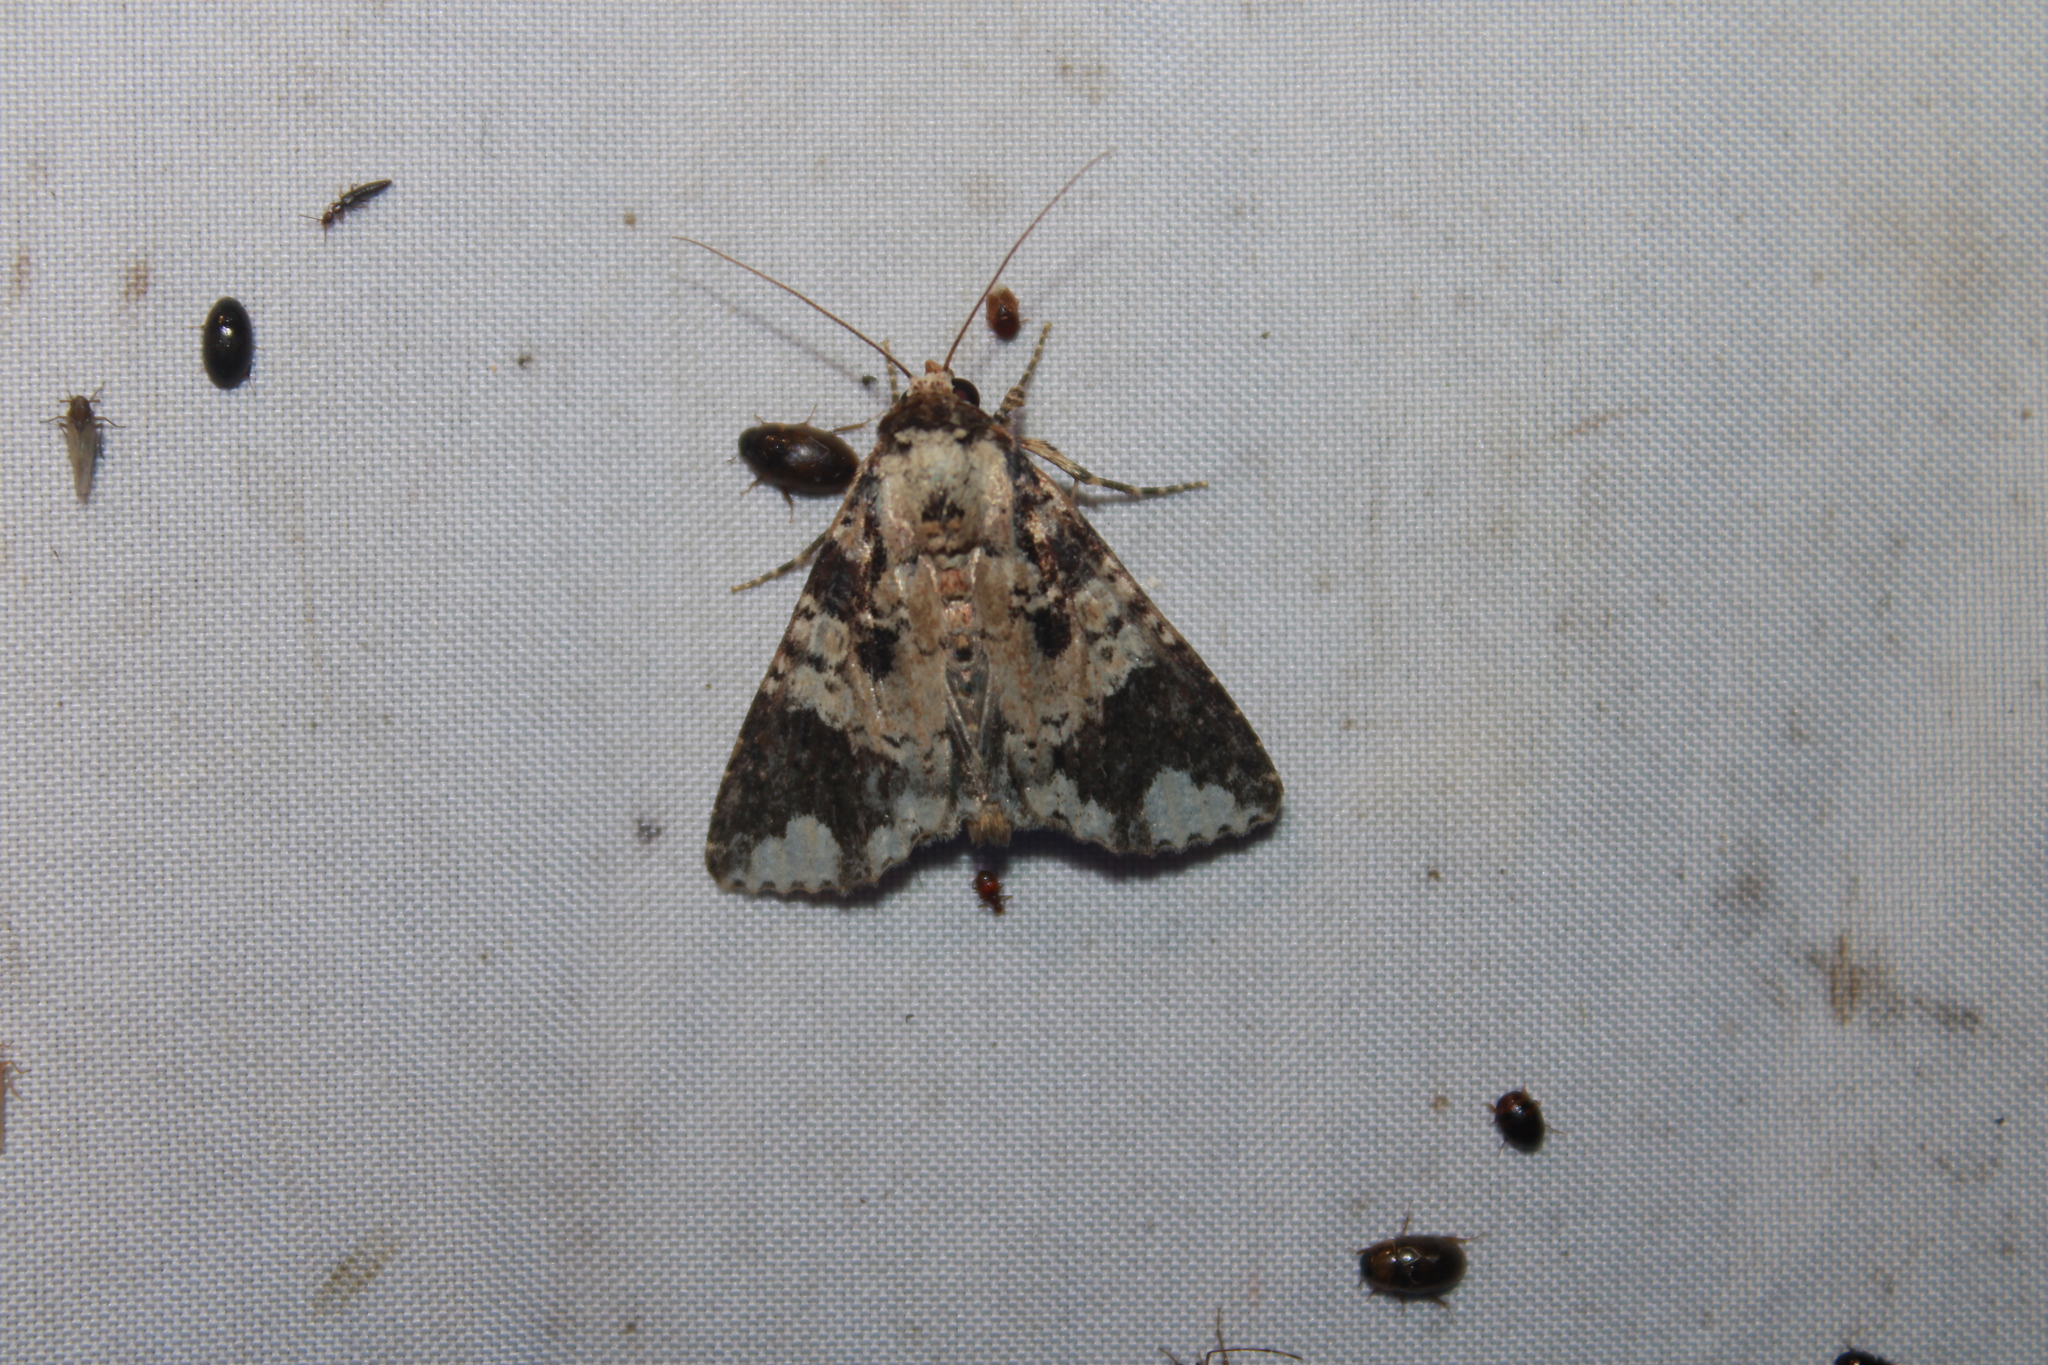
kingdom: Animalia
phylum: Arthropoda
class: Insecta
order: Lepidoptera
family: Noctuidae
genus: Condica
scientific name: Condica confederata
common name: The confederate
